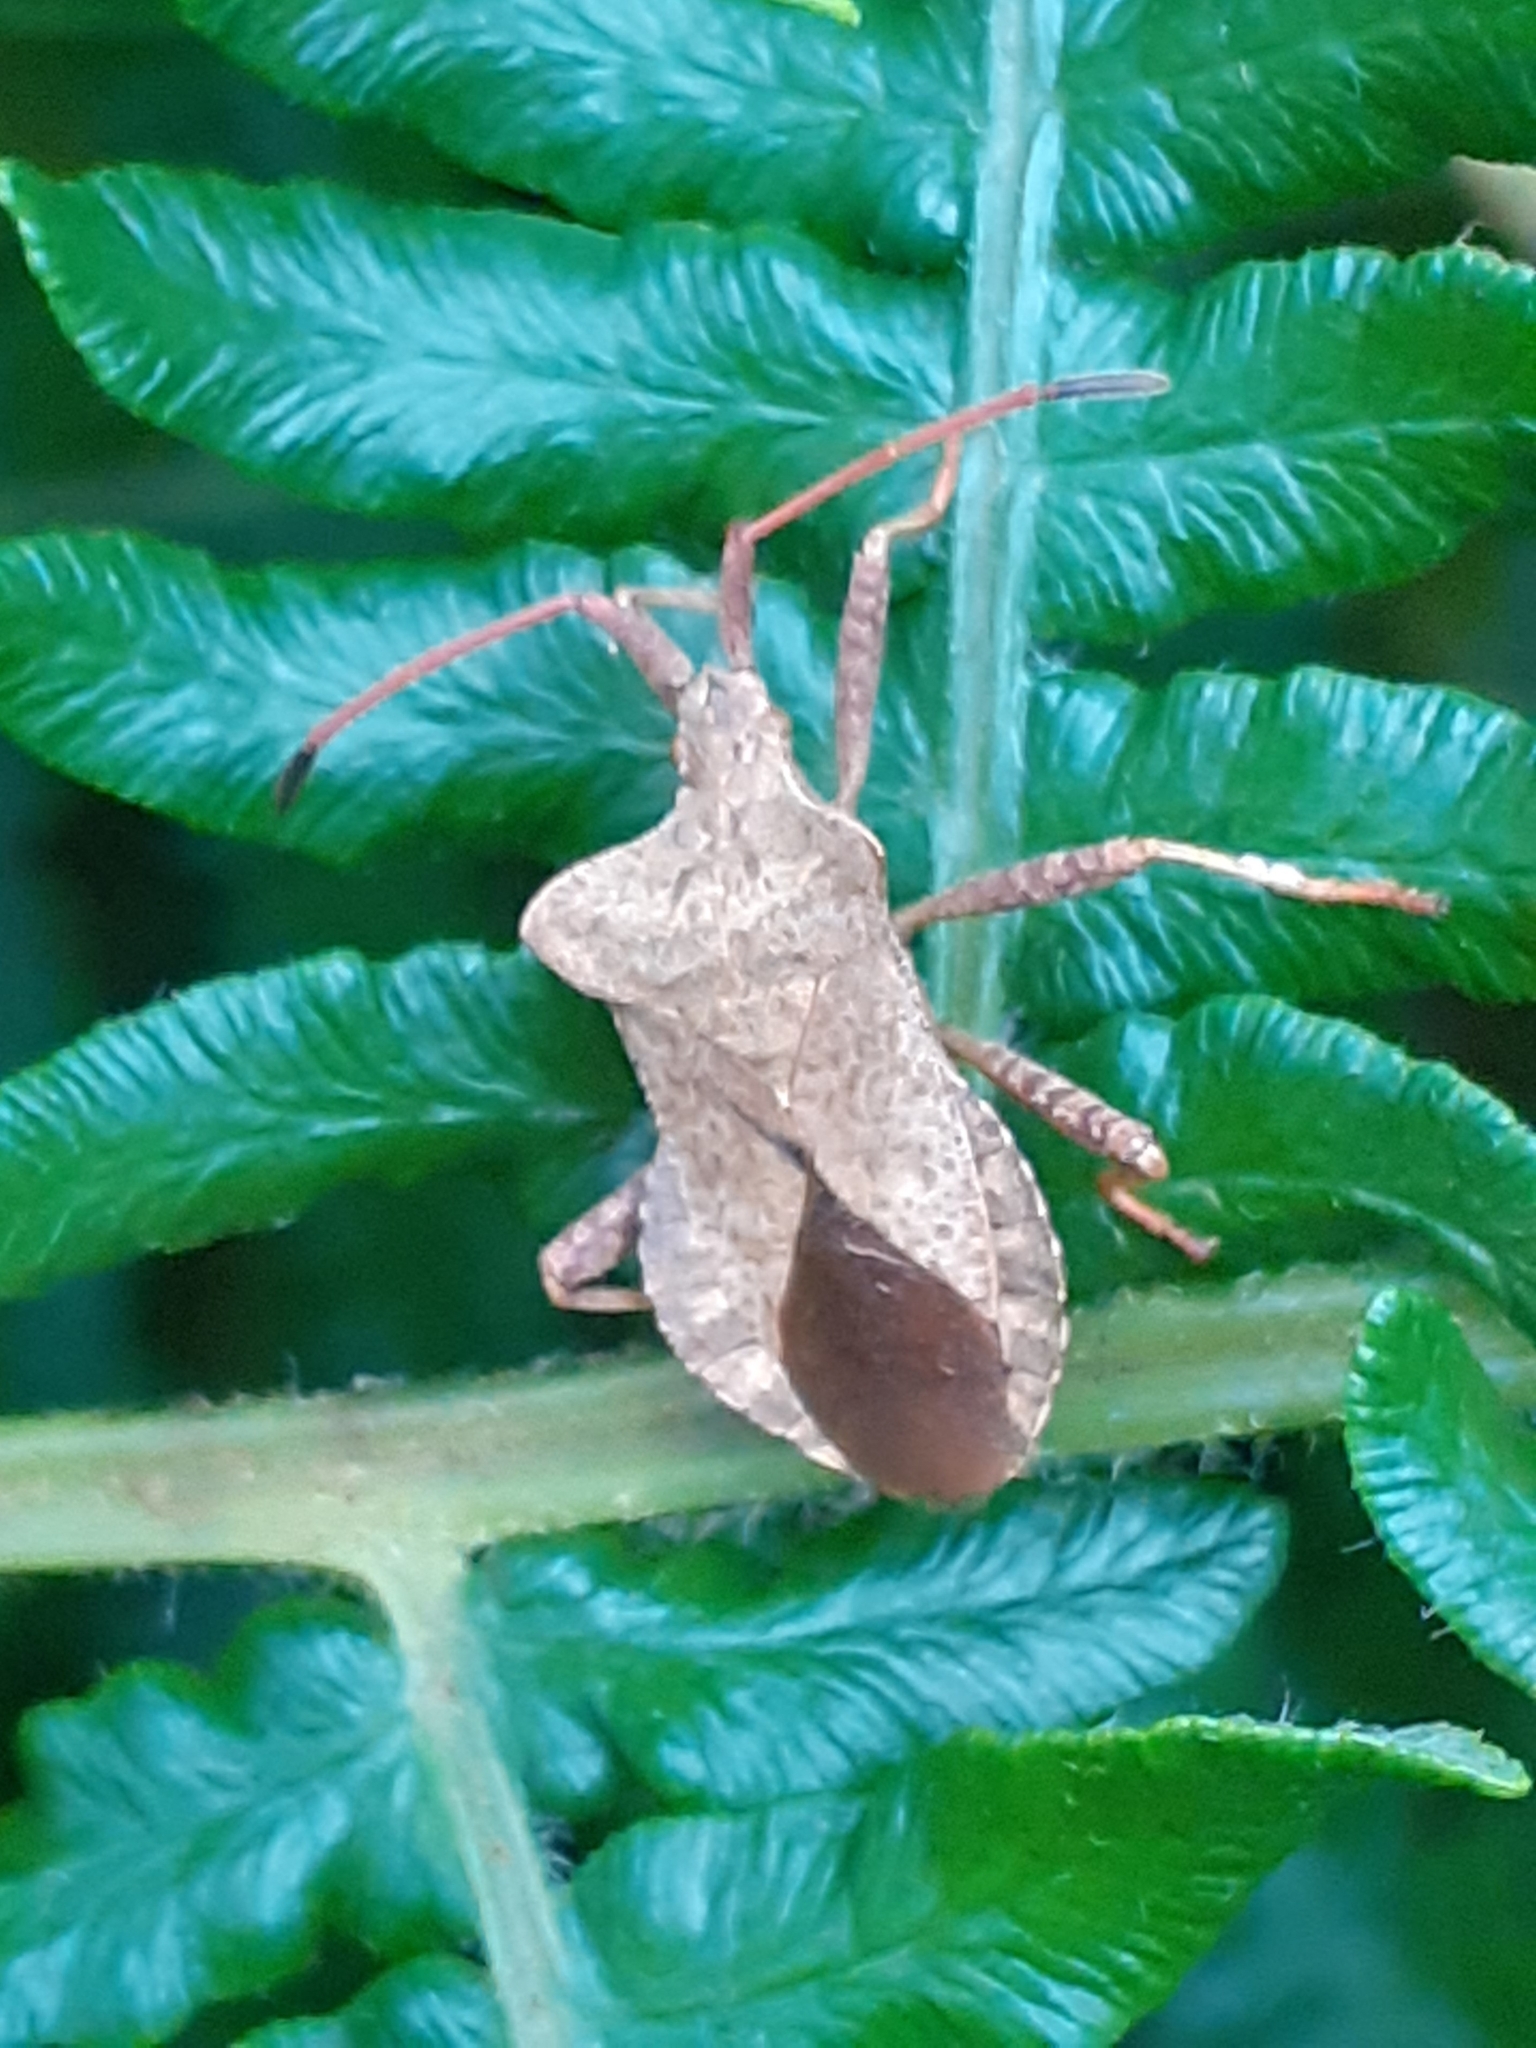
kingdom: Animalia
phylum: Arthropoda
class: Insecta
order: Hemiptera
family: Coreidae
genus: Coreus
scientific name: Coreus marginatus
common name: Dock bug
